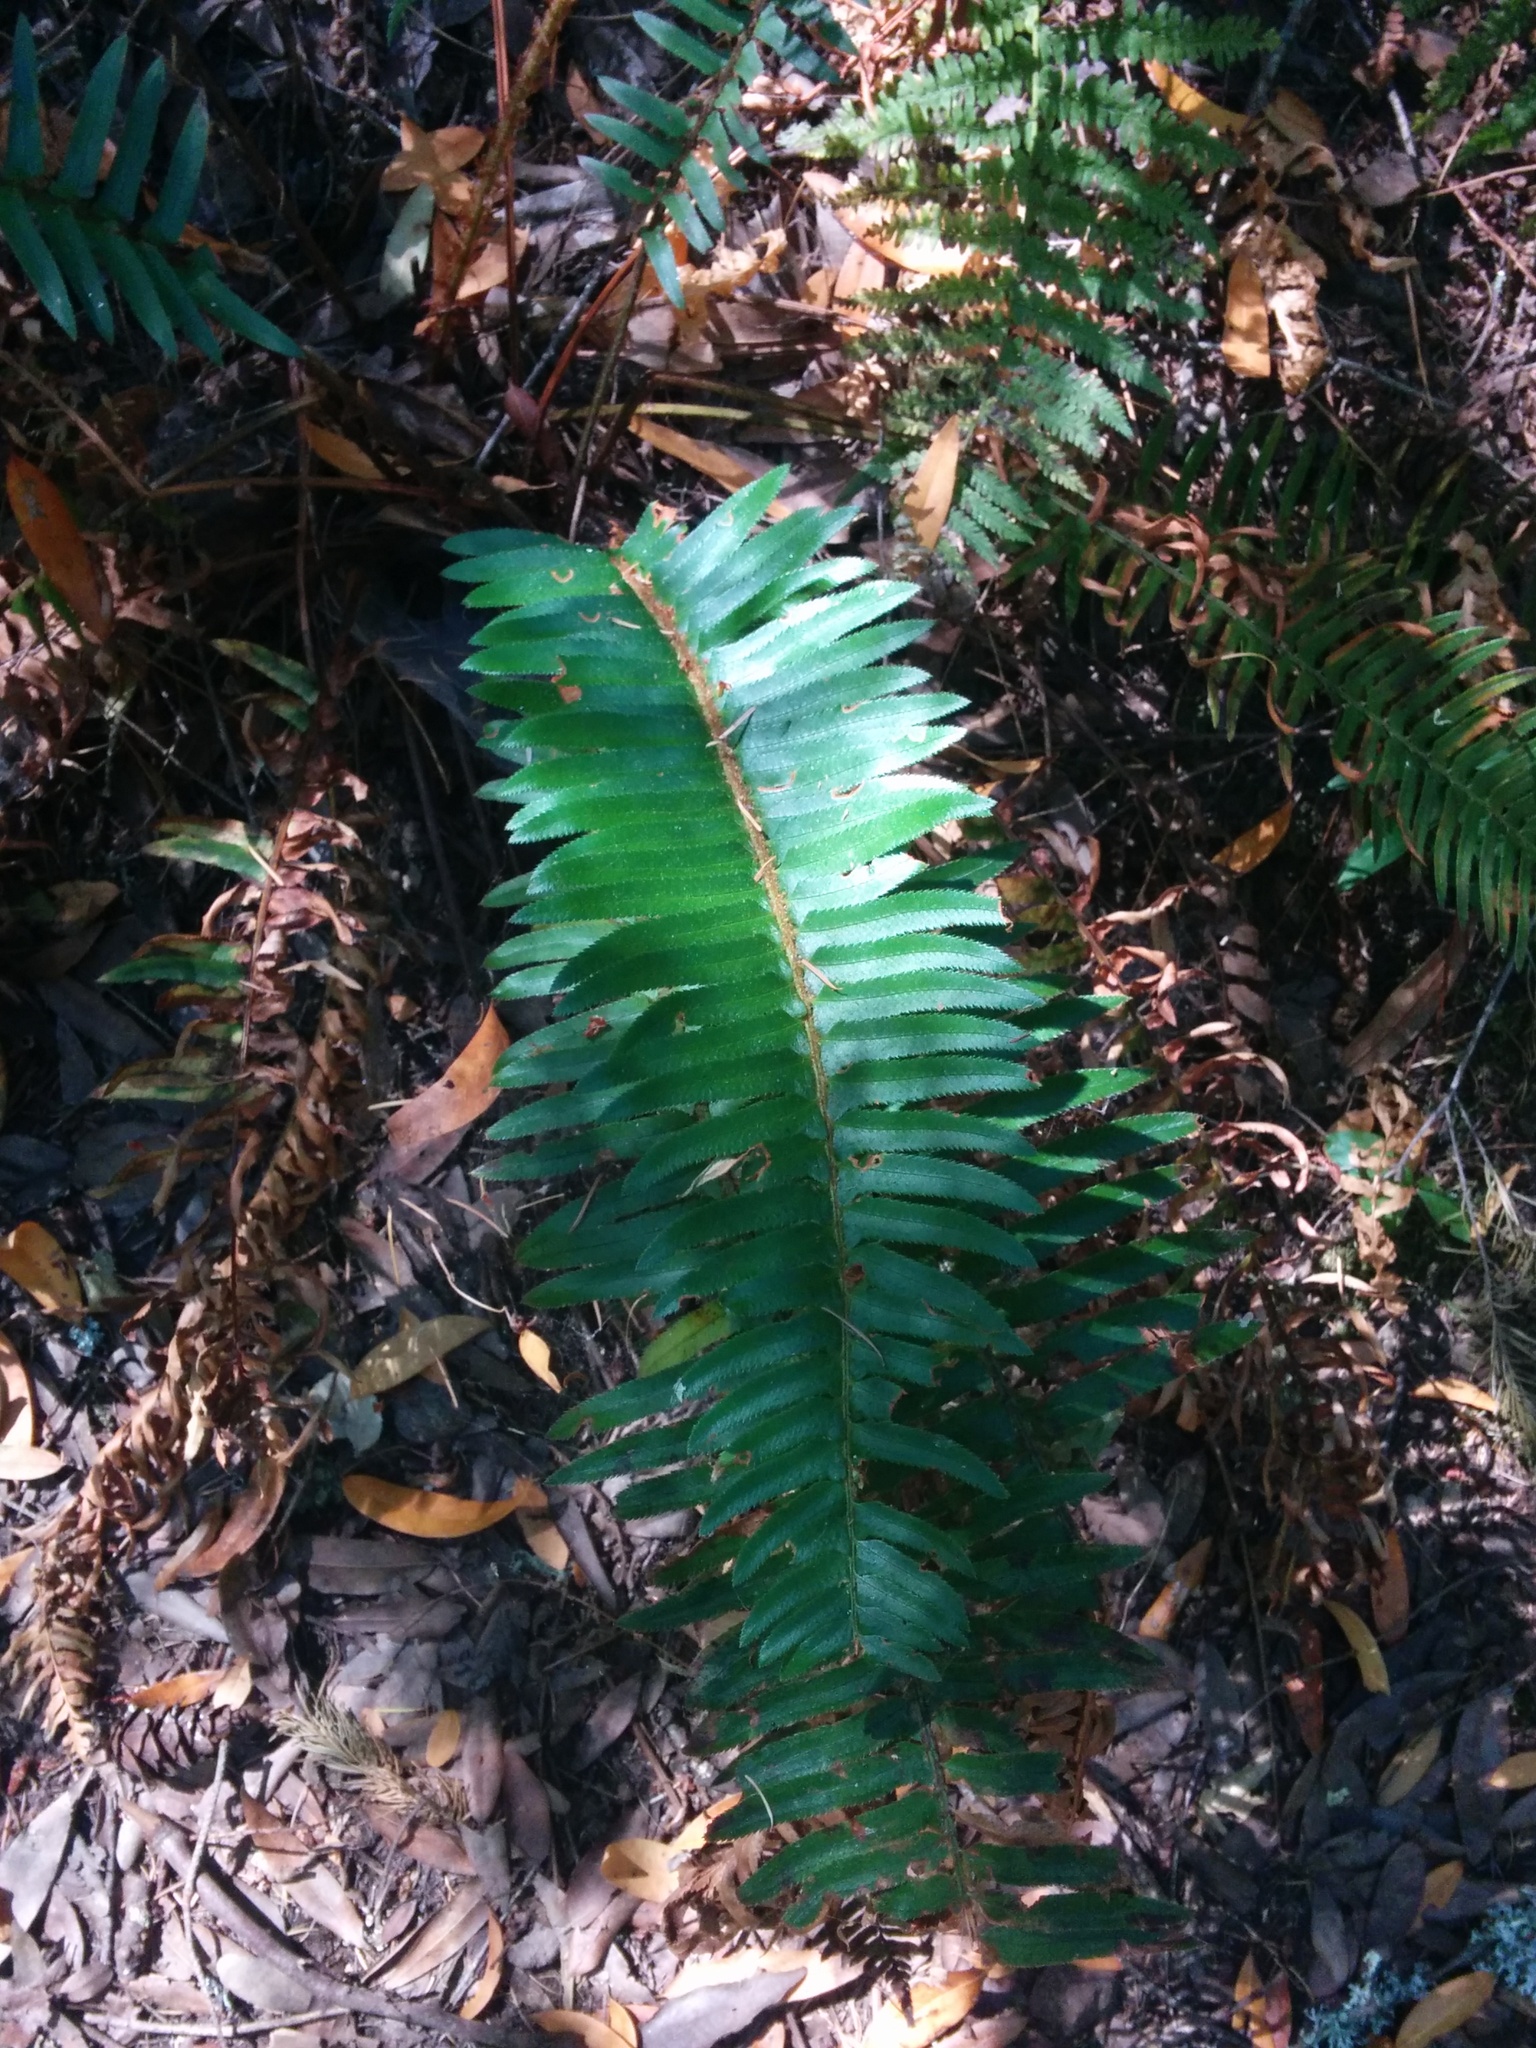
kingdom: Plantae
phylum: Tracheophyta
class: Polypodiopsida
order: Polypodiales
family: Dryopteridaceae
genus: Polystichum
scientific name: Polystichum munitum
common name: Western sword-fern
